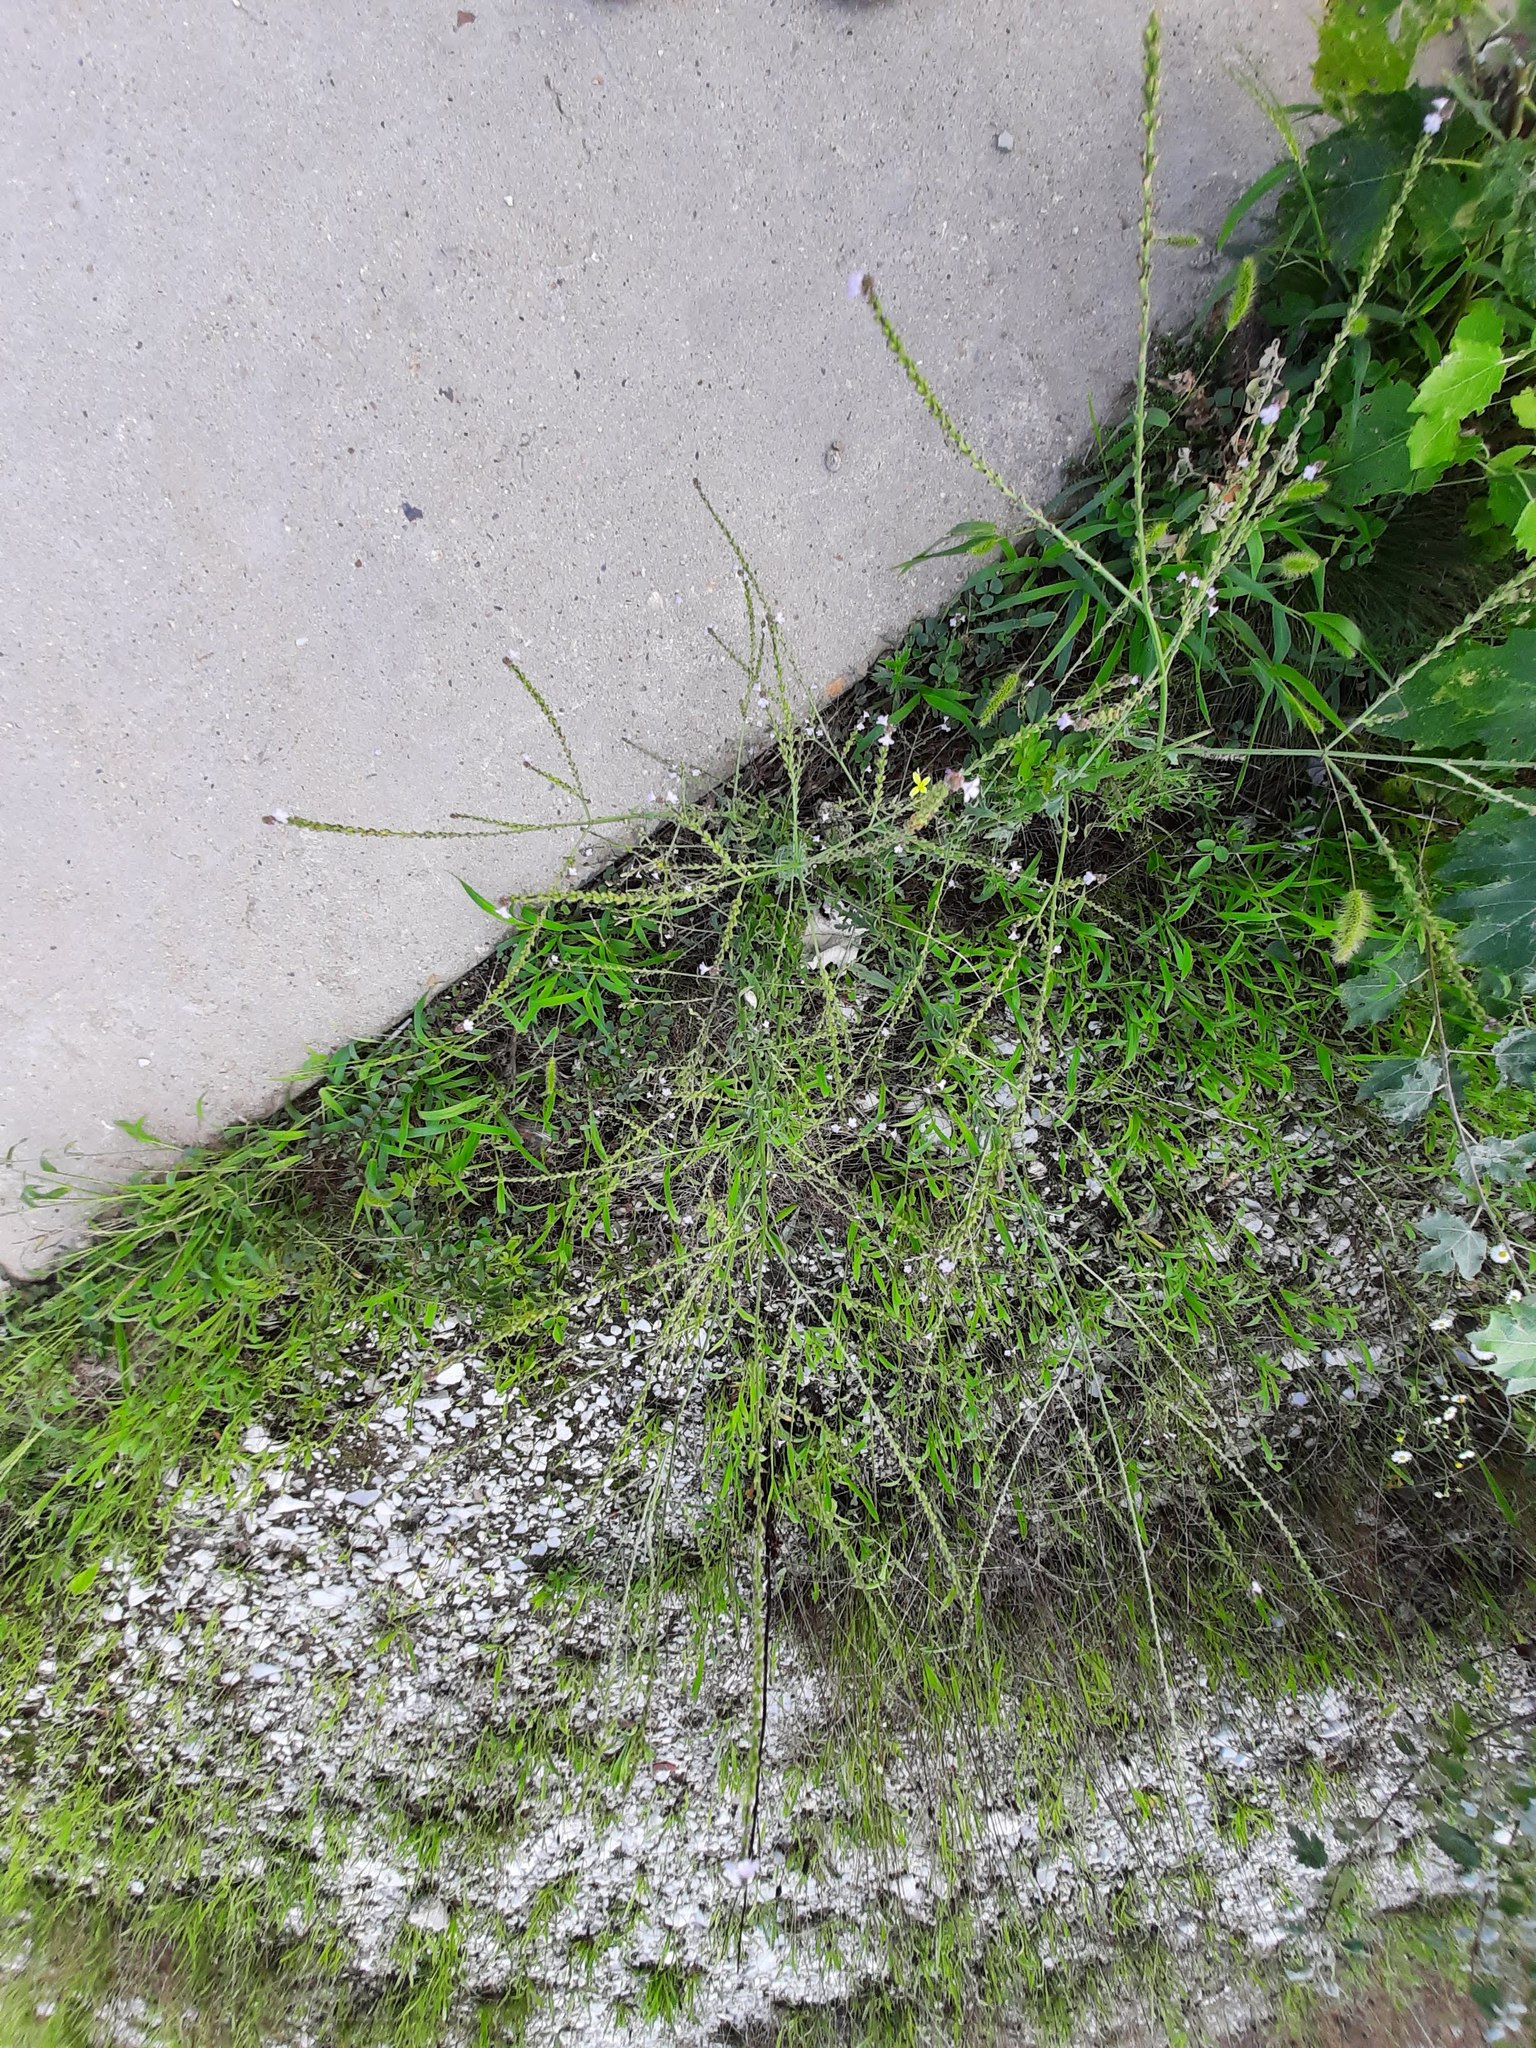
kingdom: Plantae
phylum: Tracheophyta
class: Magnoliopsida
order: Lamiales
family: Verbenaceae
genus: Verbena
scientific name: Verbena officinalis
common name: Vervain
